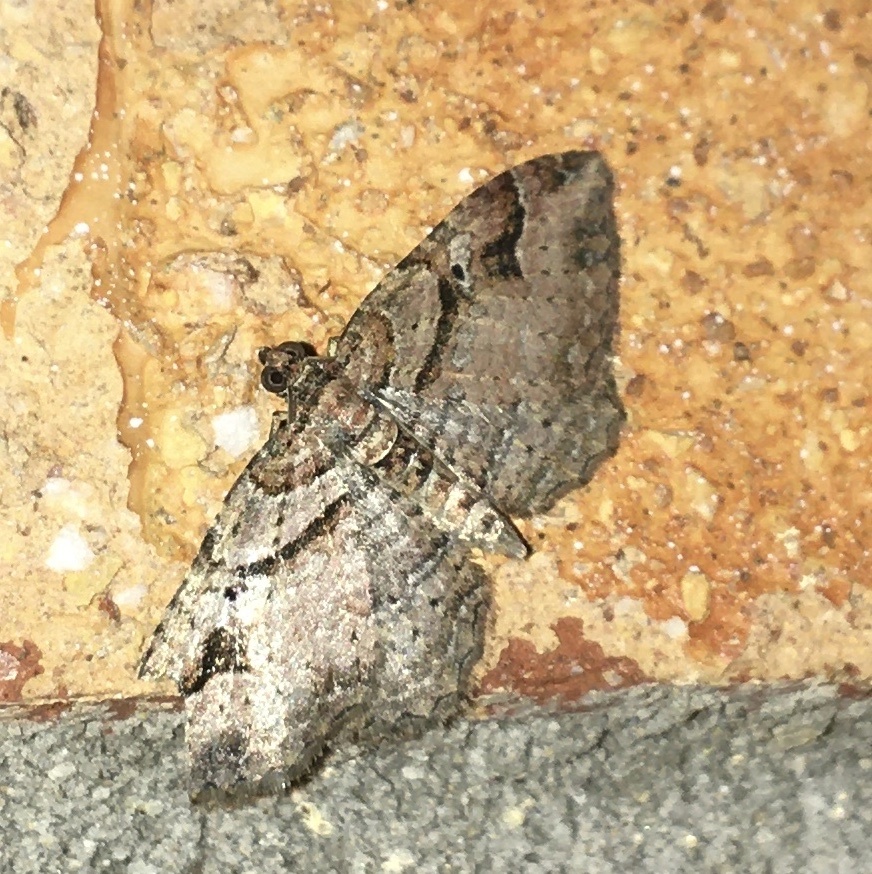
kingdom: Animalia
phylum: Arthropoda
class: Insecta
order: Lepidoptera
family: Geometridae
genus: Costaconvexa
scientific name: Costaconvexa centrostrigaria
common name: Bent-line carpet
